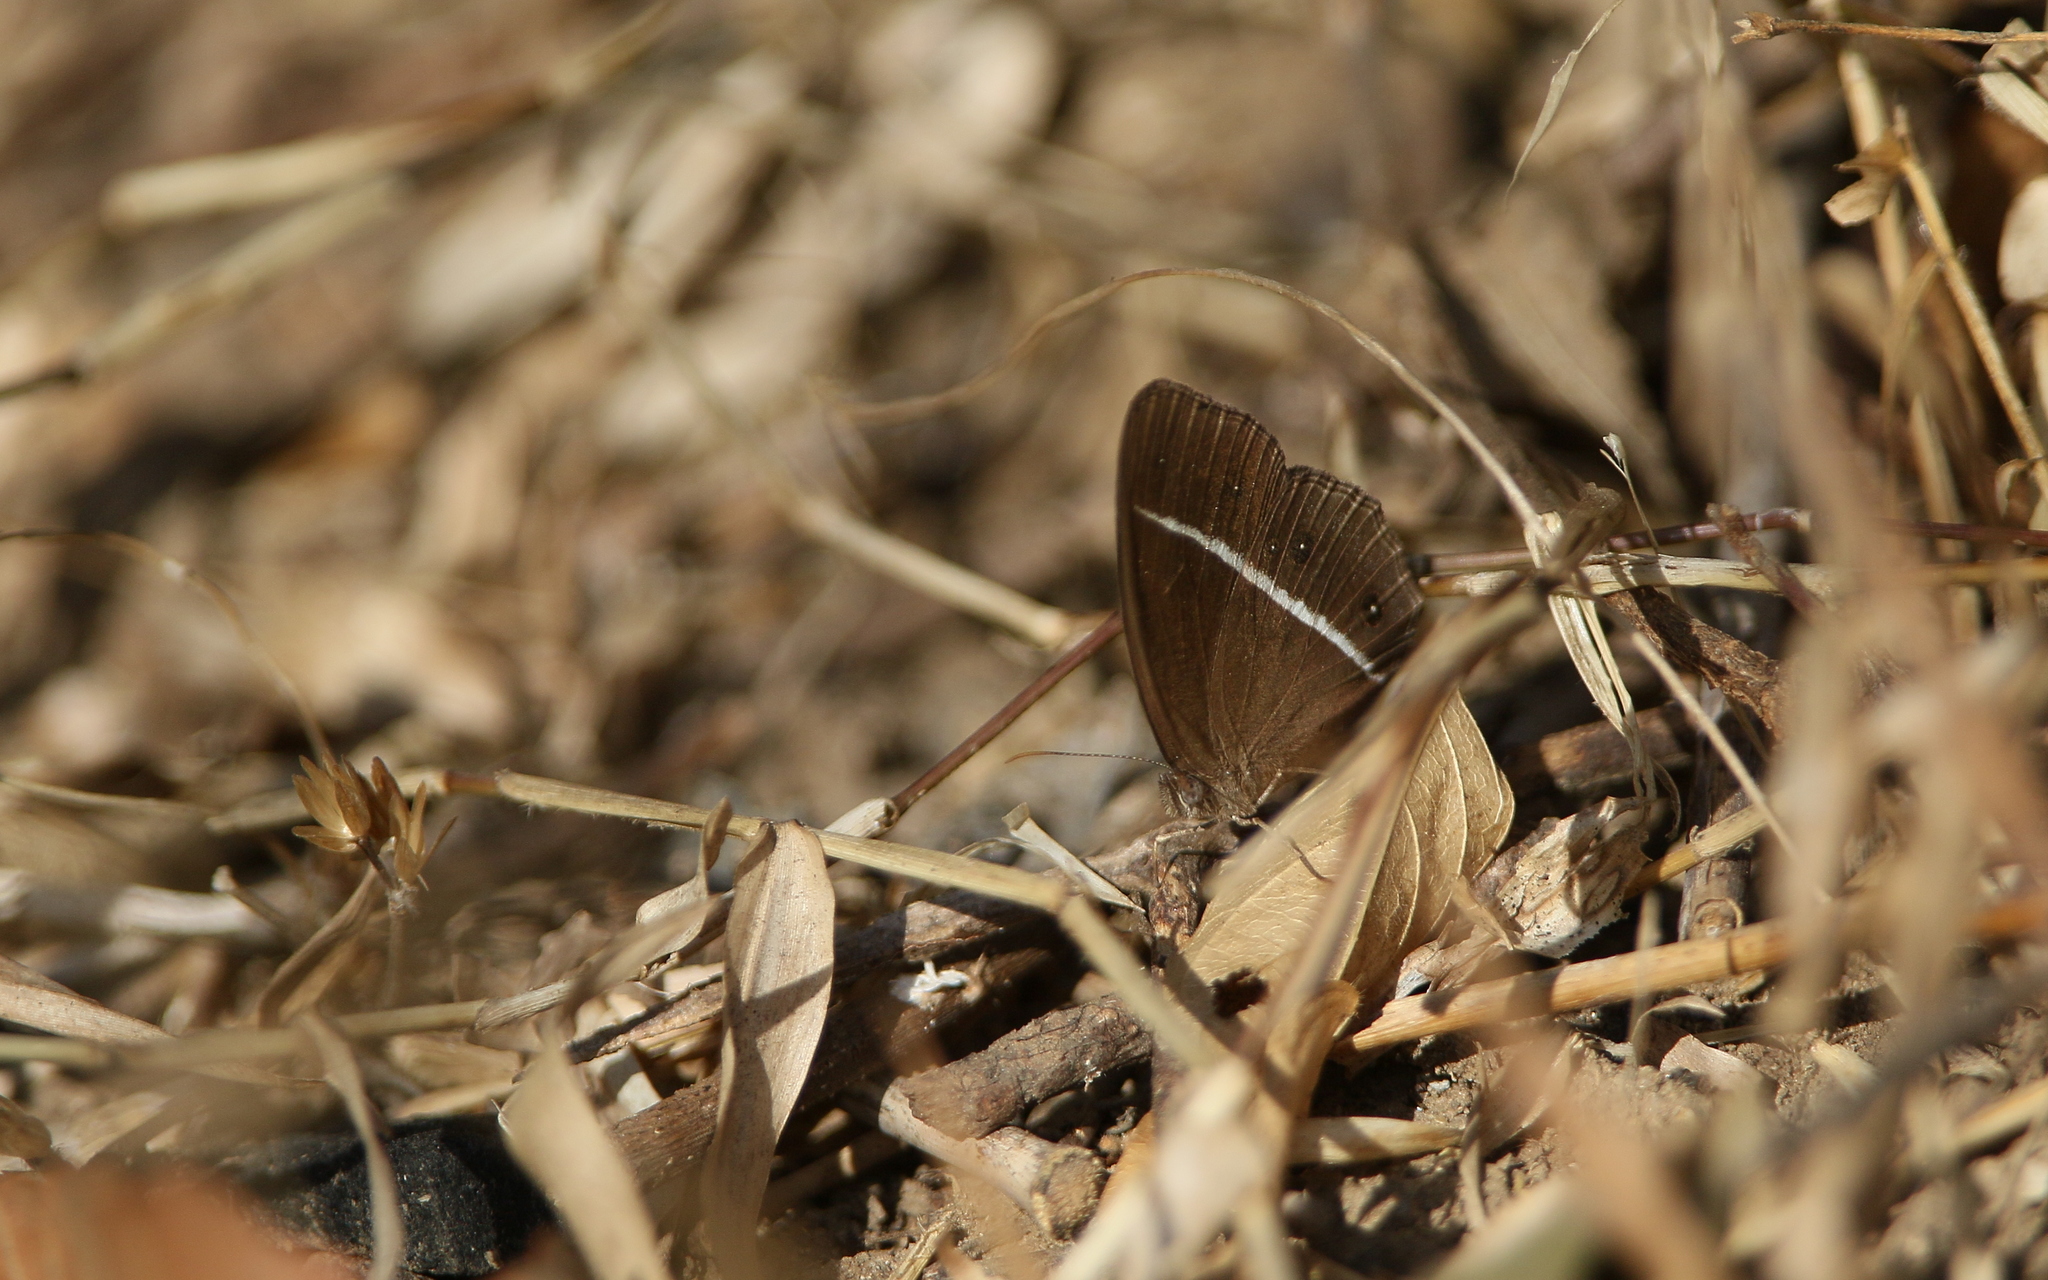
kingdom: Animalia
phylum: Arthropoda
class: Insecta
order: Lepidoptera
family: Nymphalidae
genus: Orsotriaena
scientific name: Orsotriaena medus
